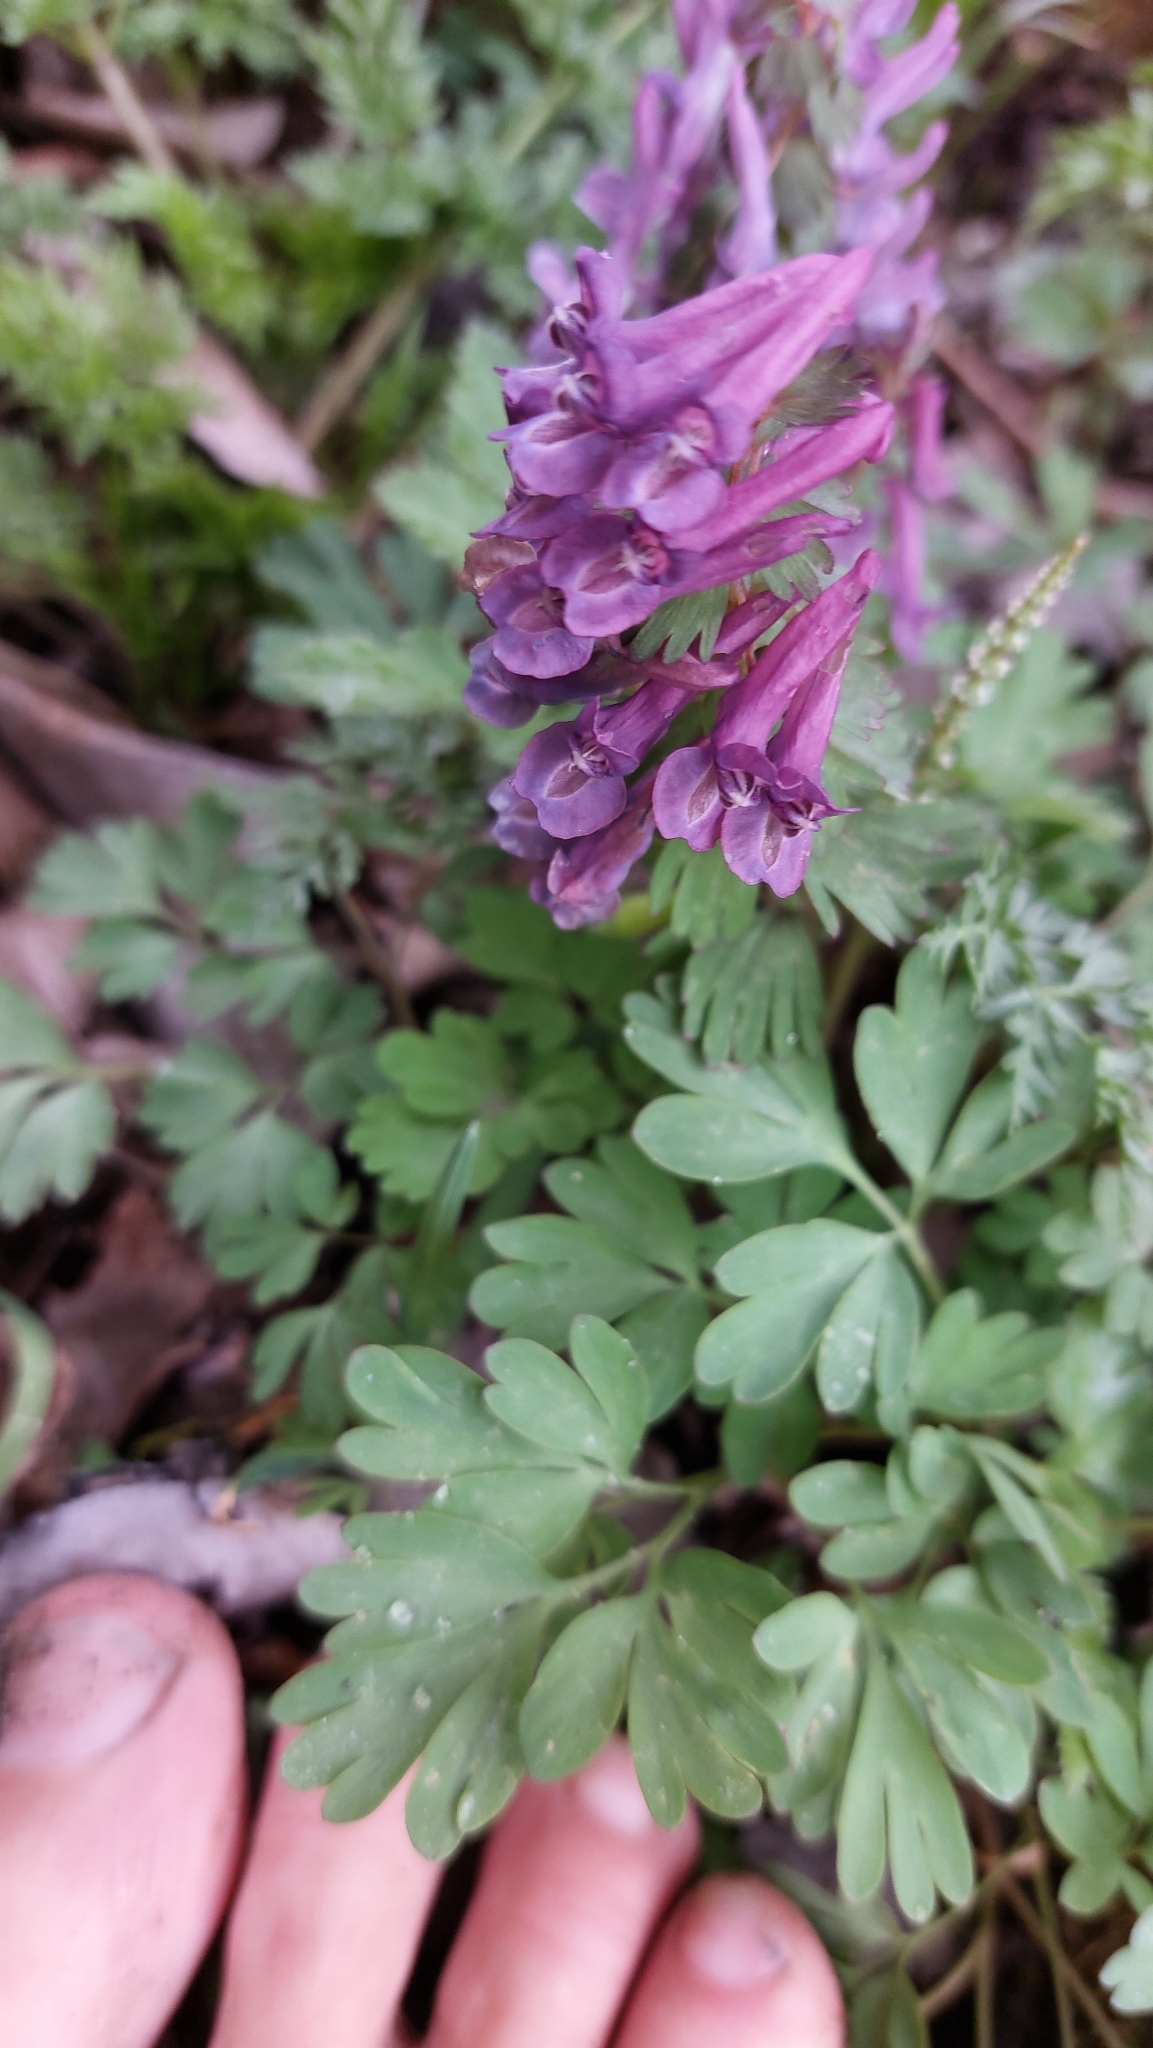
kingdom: Plantae
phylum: Tracheophyta
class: Magnoliopsida
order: Ranunculales
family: Papaveraceae
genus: Corydalis
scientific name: Corydalis solida
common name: Bird-in-a-bush
